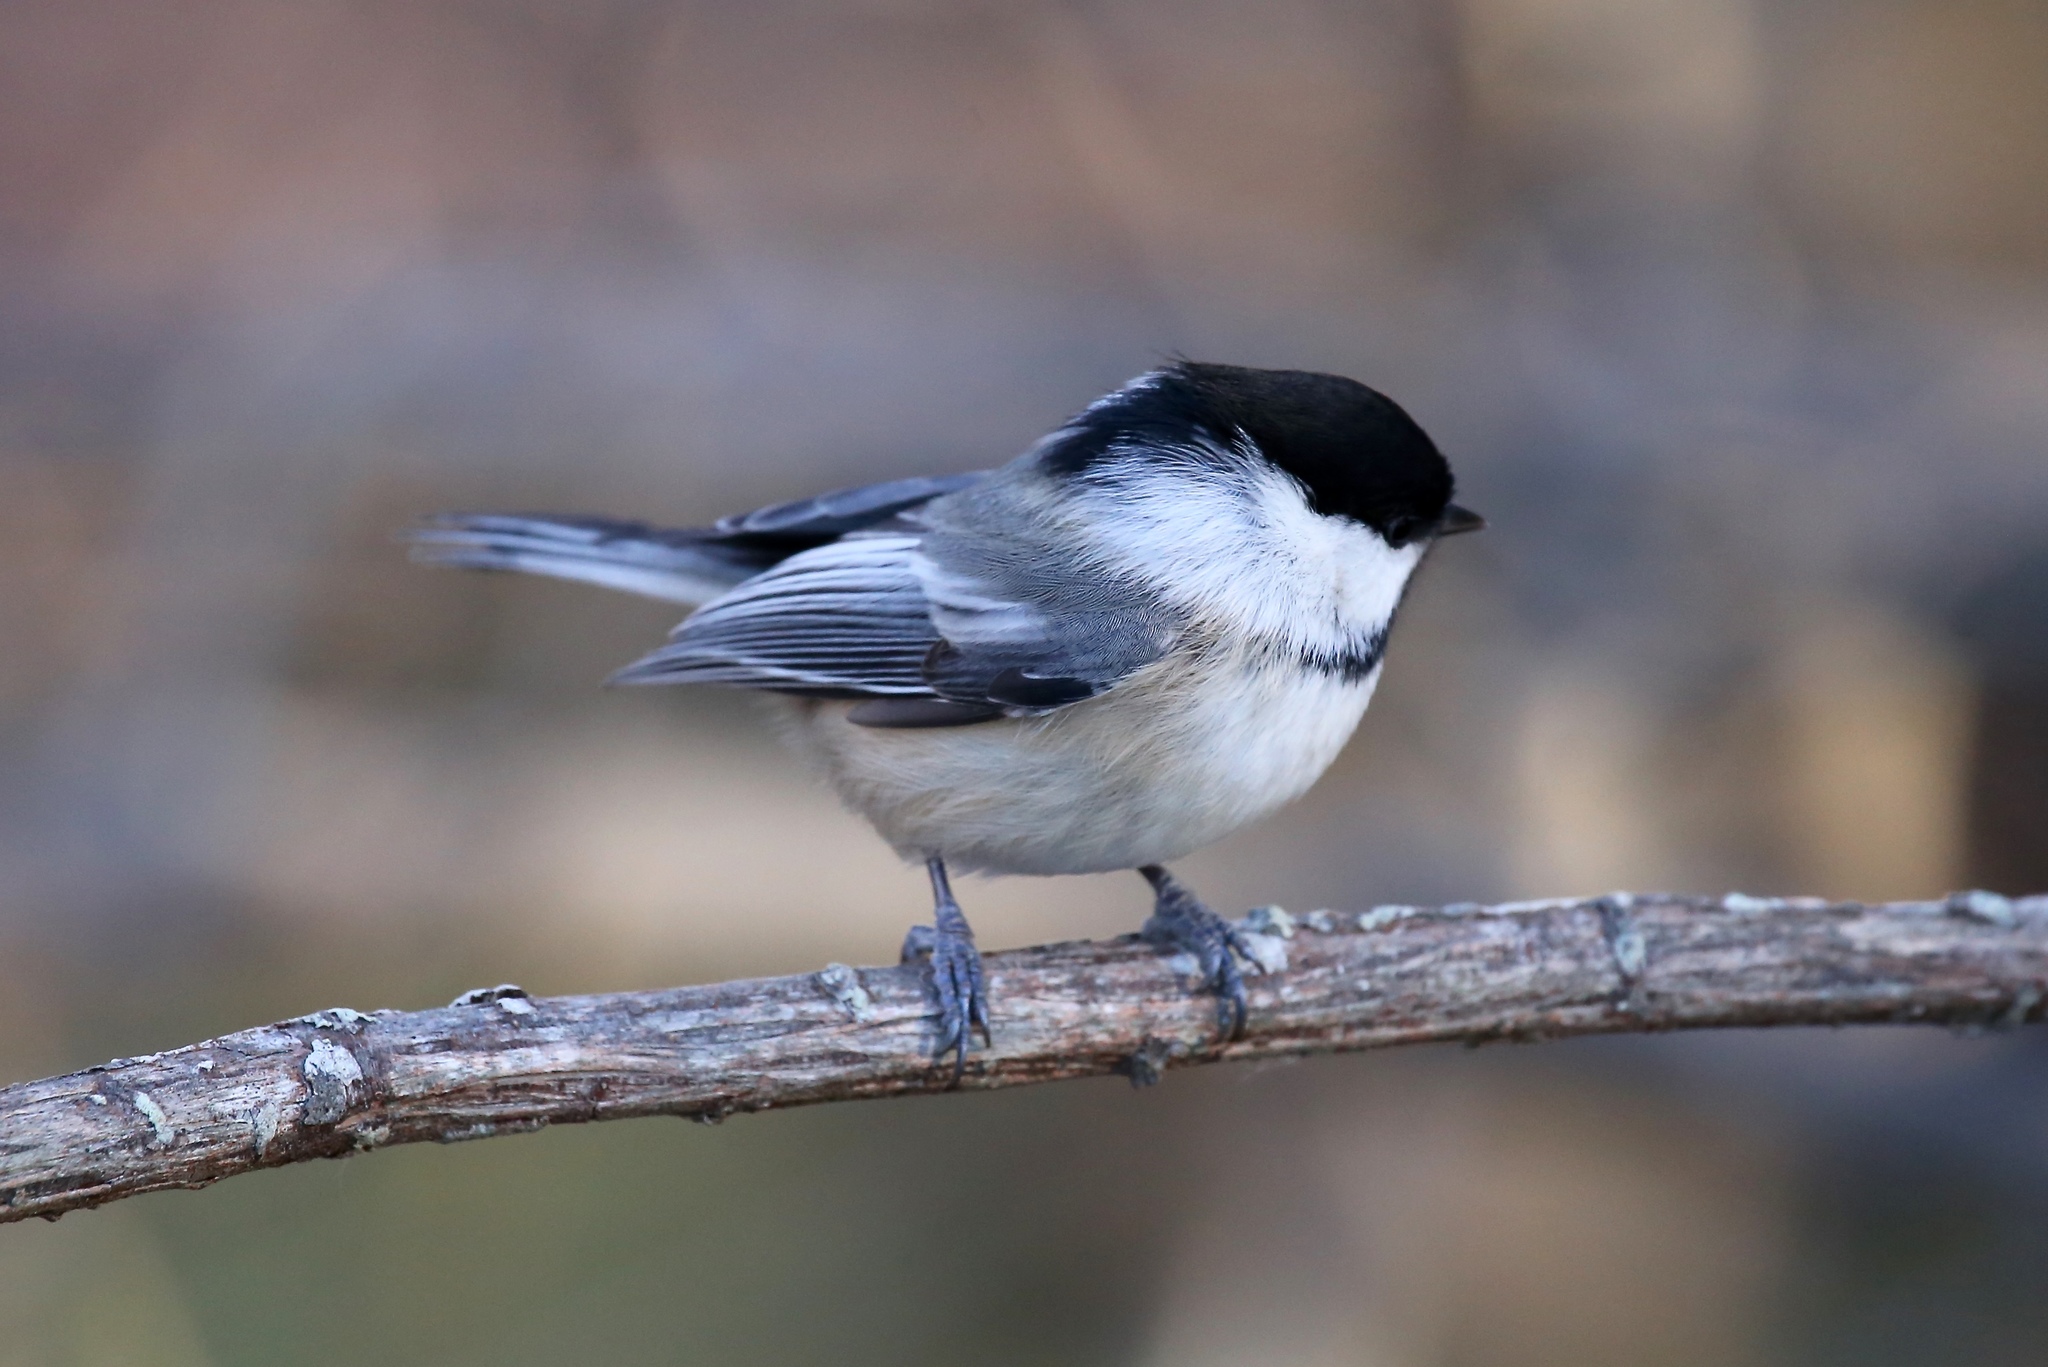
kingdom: Animalia
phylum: Chordata
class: Aves
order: Passeriformes
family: Paridae
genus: Poecile
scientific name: Poecile atricapillus
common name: Black-capped chickadee
